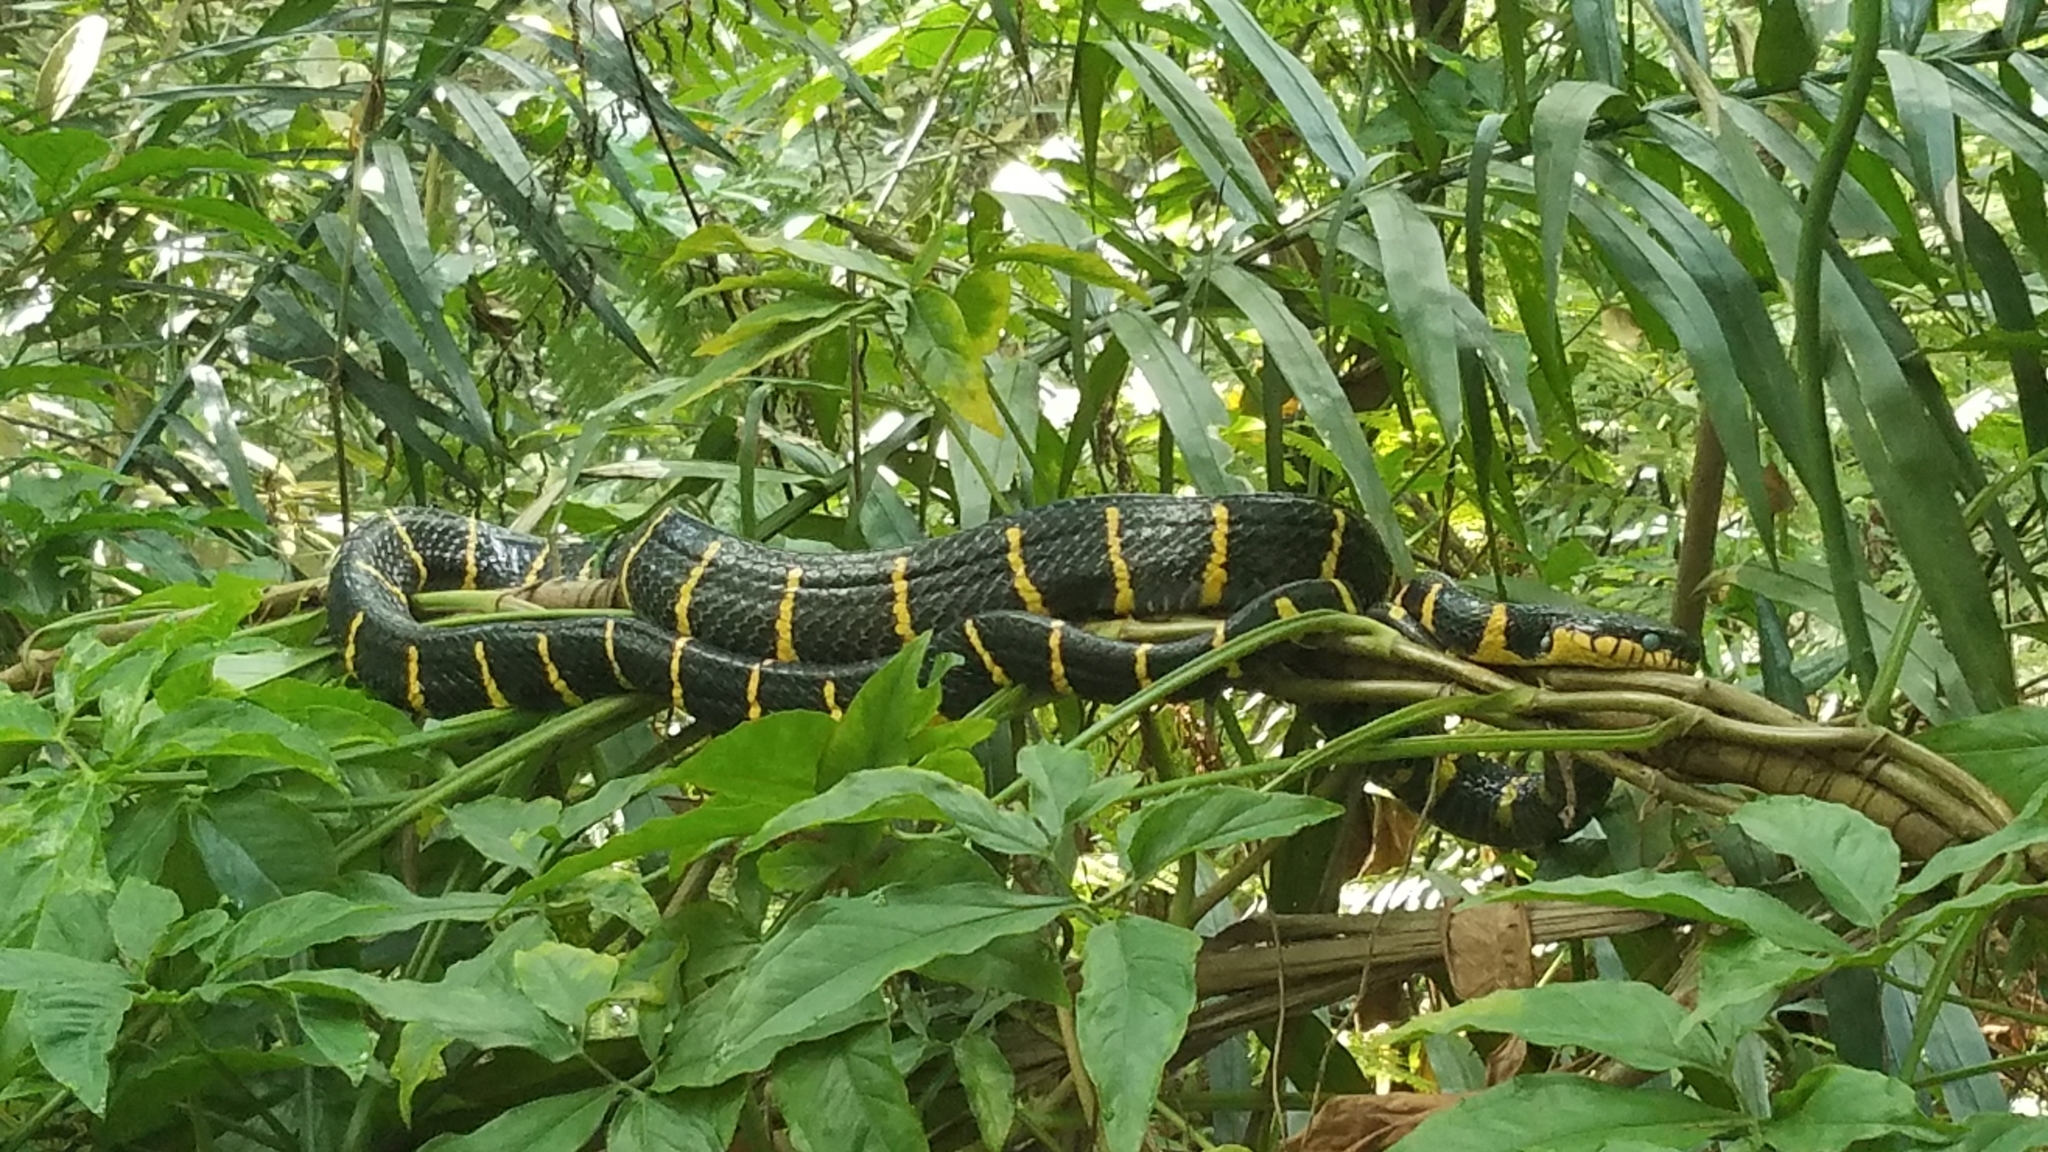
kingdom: Animalia
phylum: Chordata
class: Squamata
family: Colubridae
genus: Boiga
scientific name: Boiga melanota
